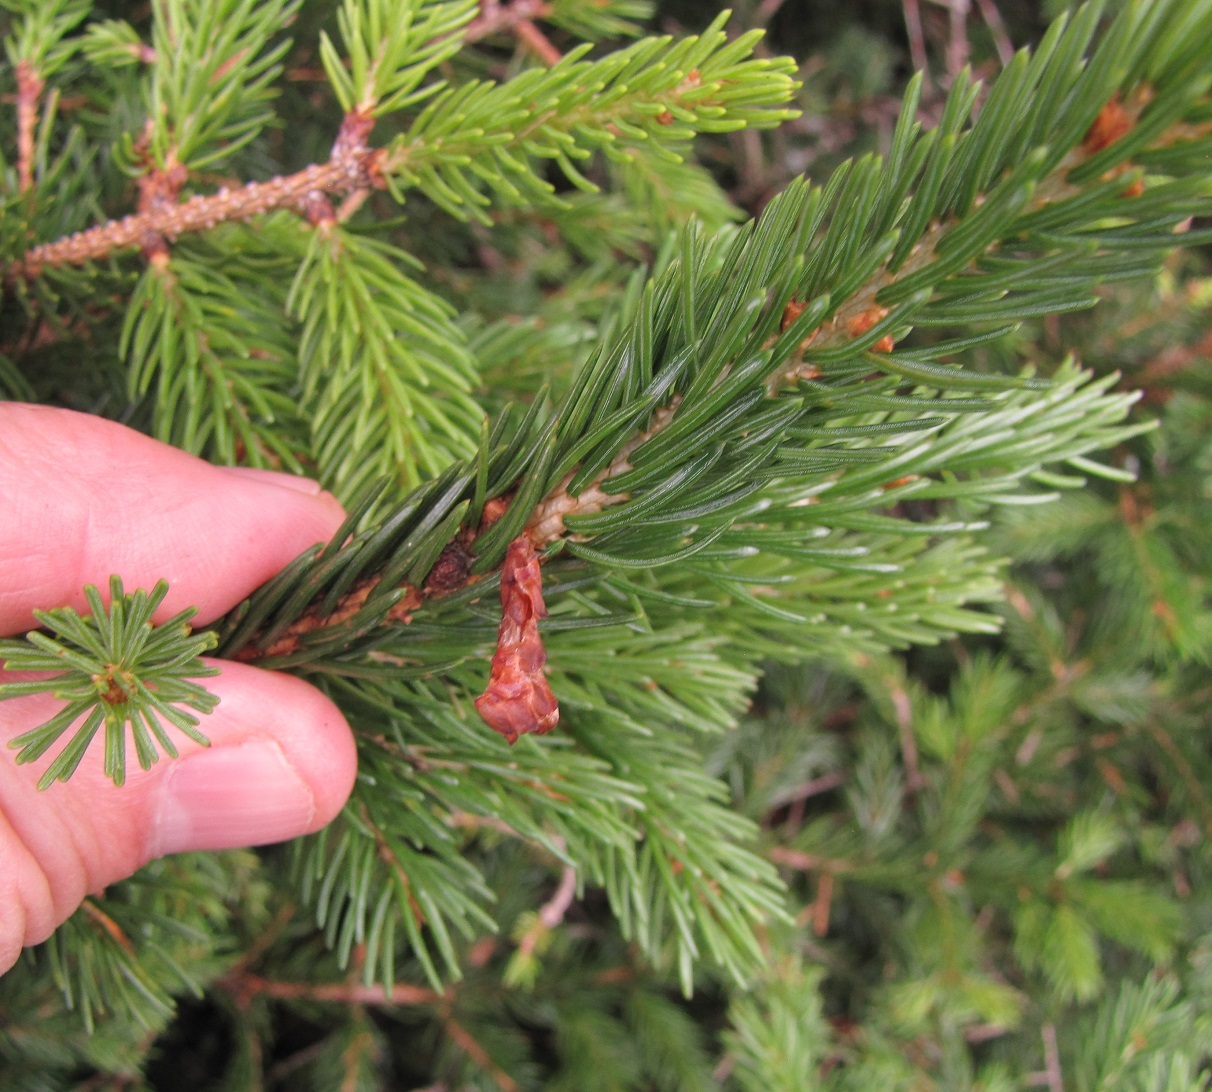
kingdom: Plantae
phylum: Tracheophyta
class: Pinopsida
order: Pinales
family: Pinaceae
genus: Picea
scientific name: Picea rubens
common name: Red spruce
